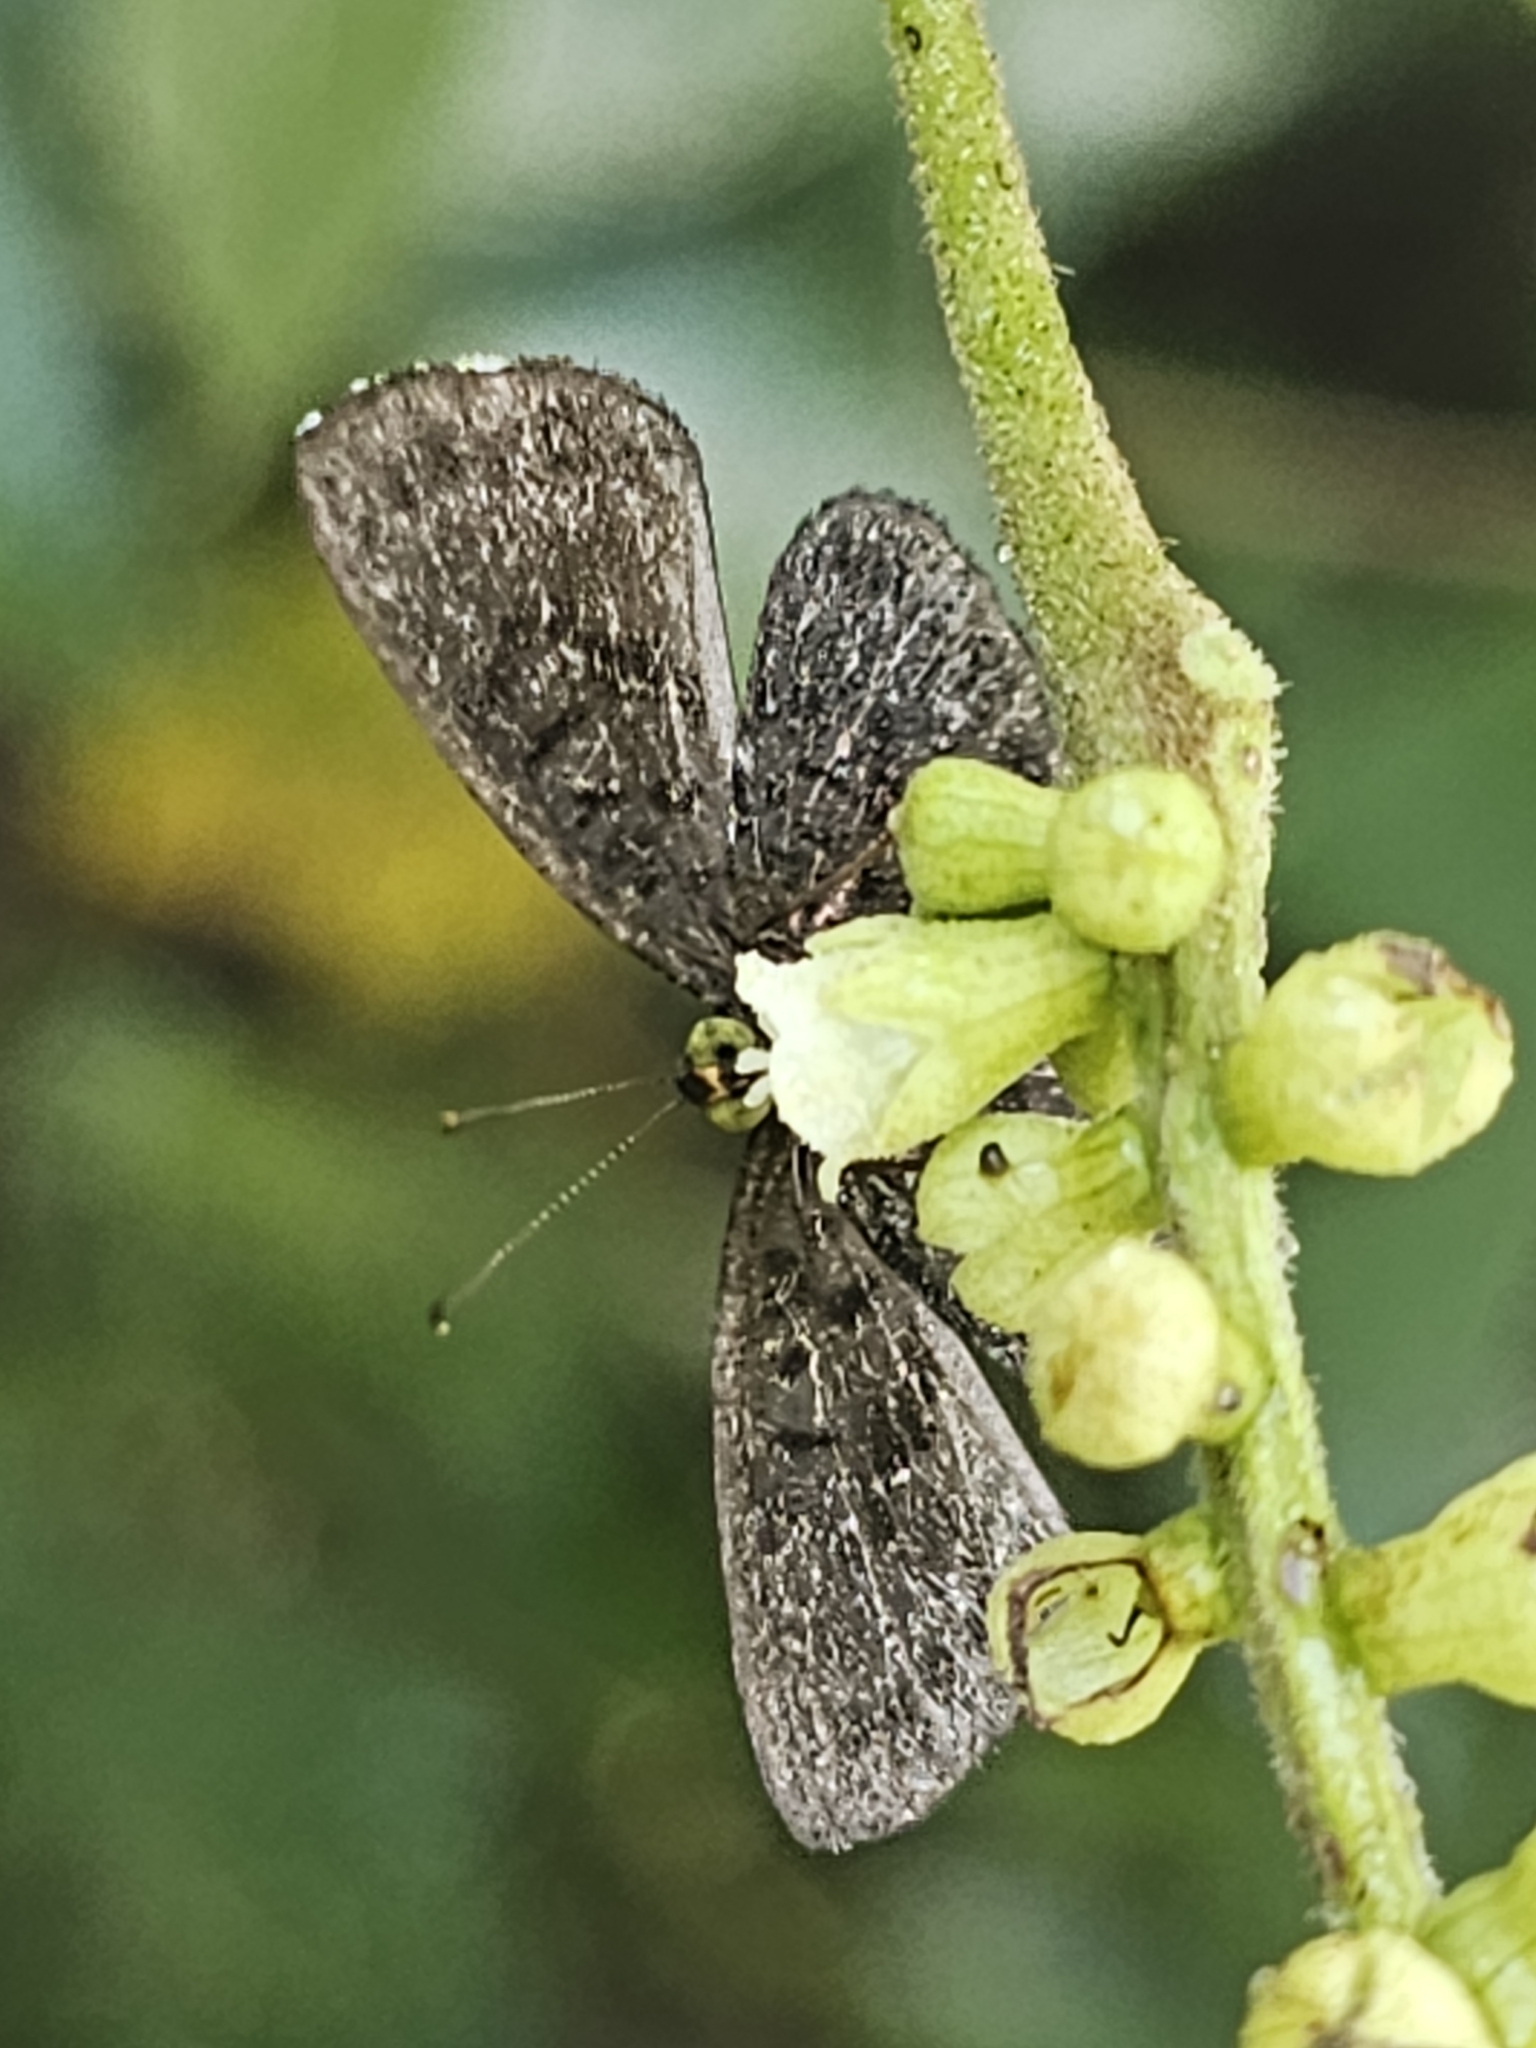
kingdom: Animalia
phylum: Arthropoda
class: Insecta
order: Lepidoptera
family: Riodinidae
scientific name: Riodinidae
